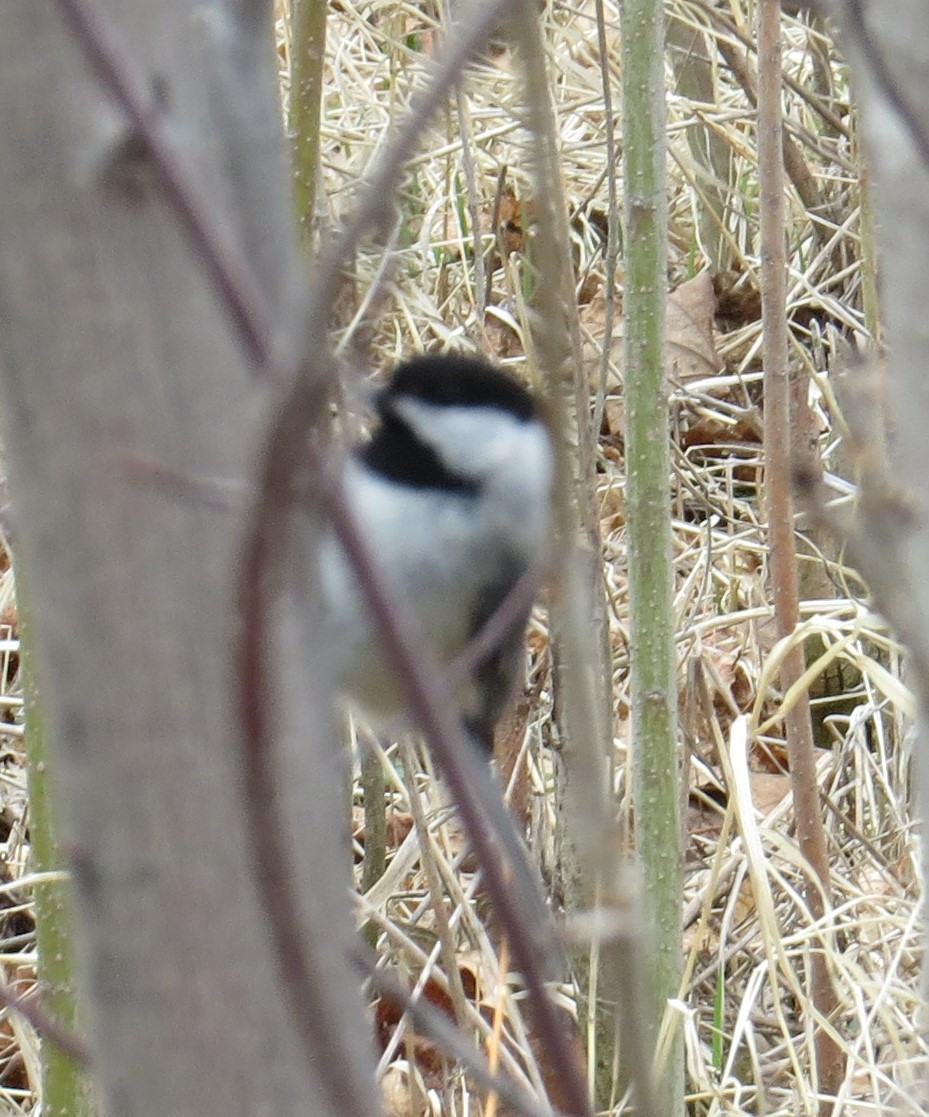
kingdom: Animalia
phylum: Chordata
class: Aves
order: Passeriformes
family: Paridae
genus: Poecile
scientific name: Poecile atricapillus
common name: Black-capped chickadee
